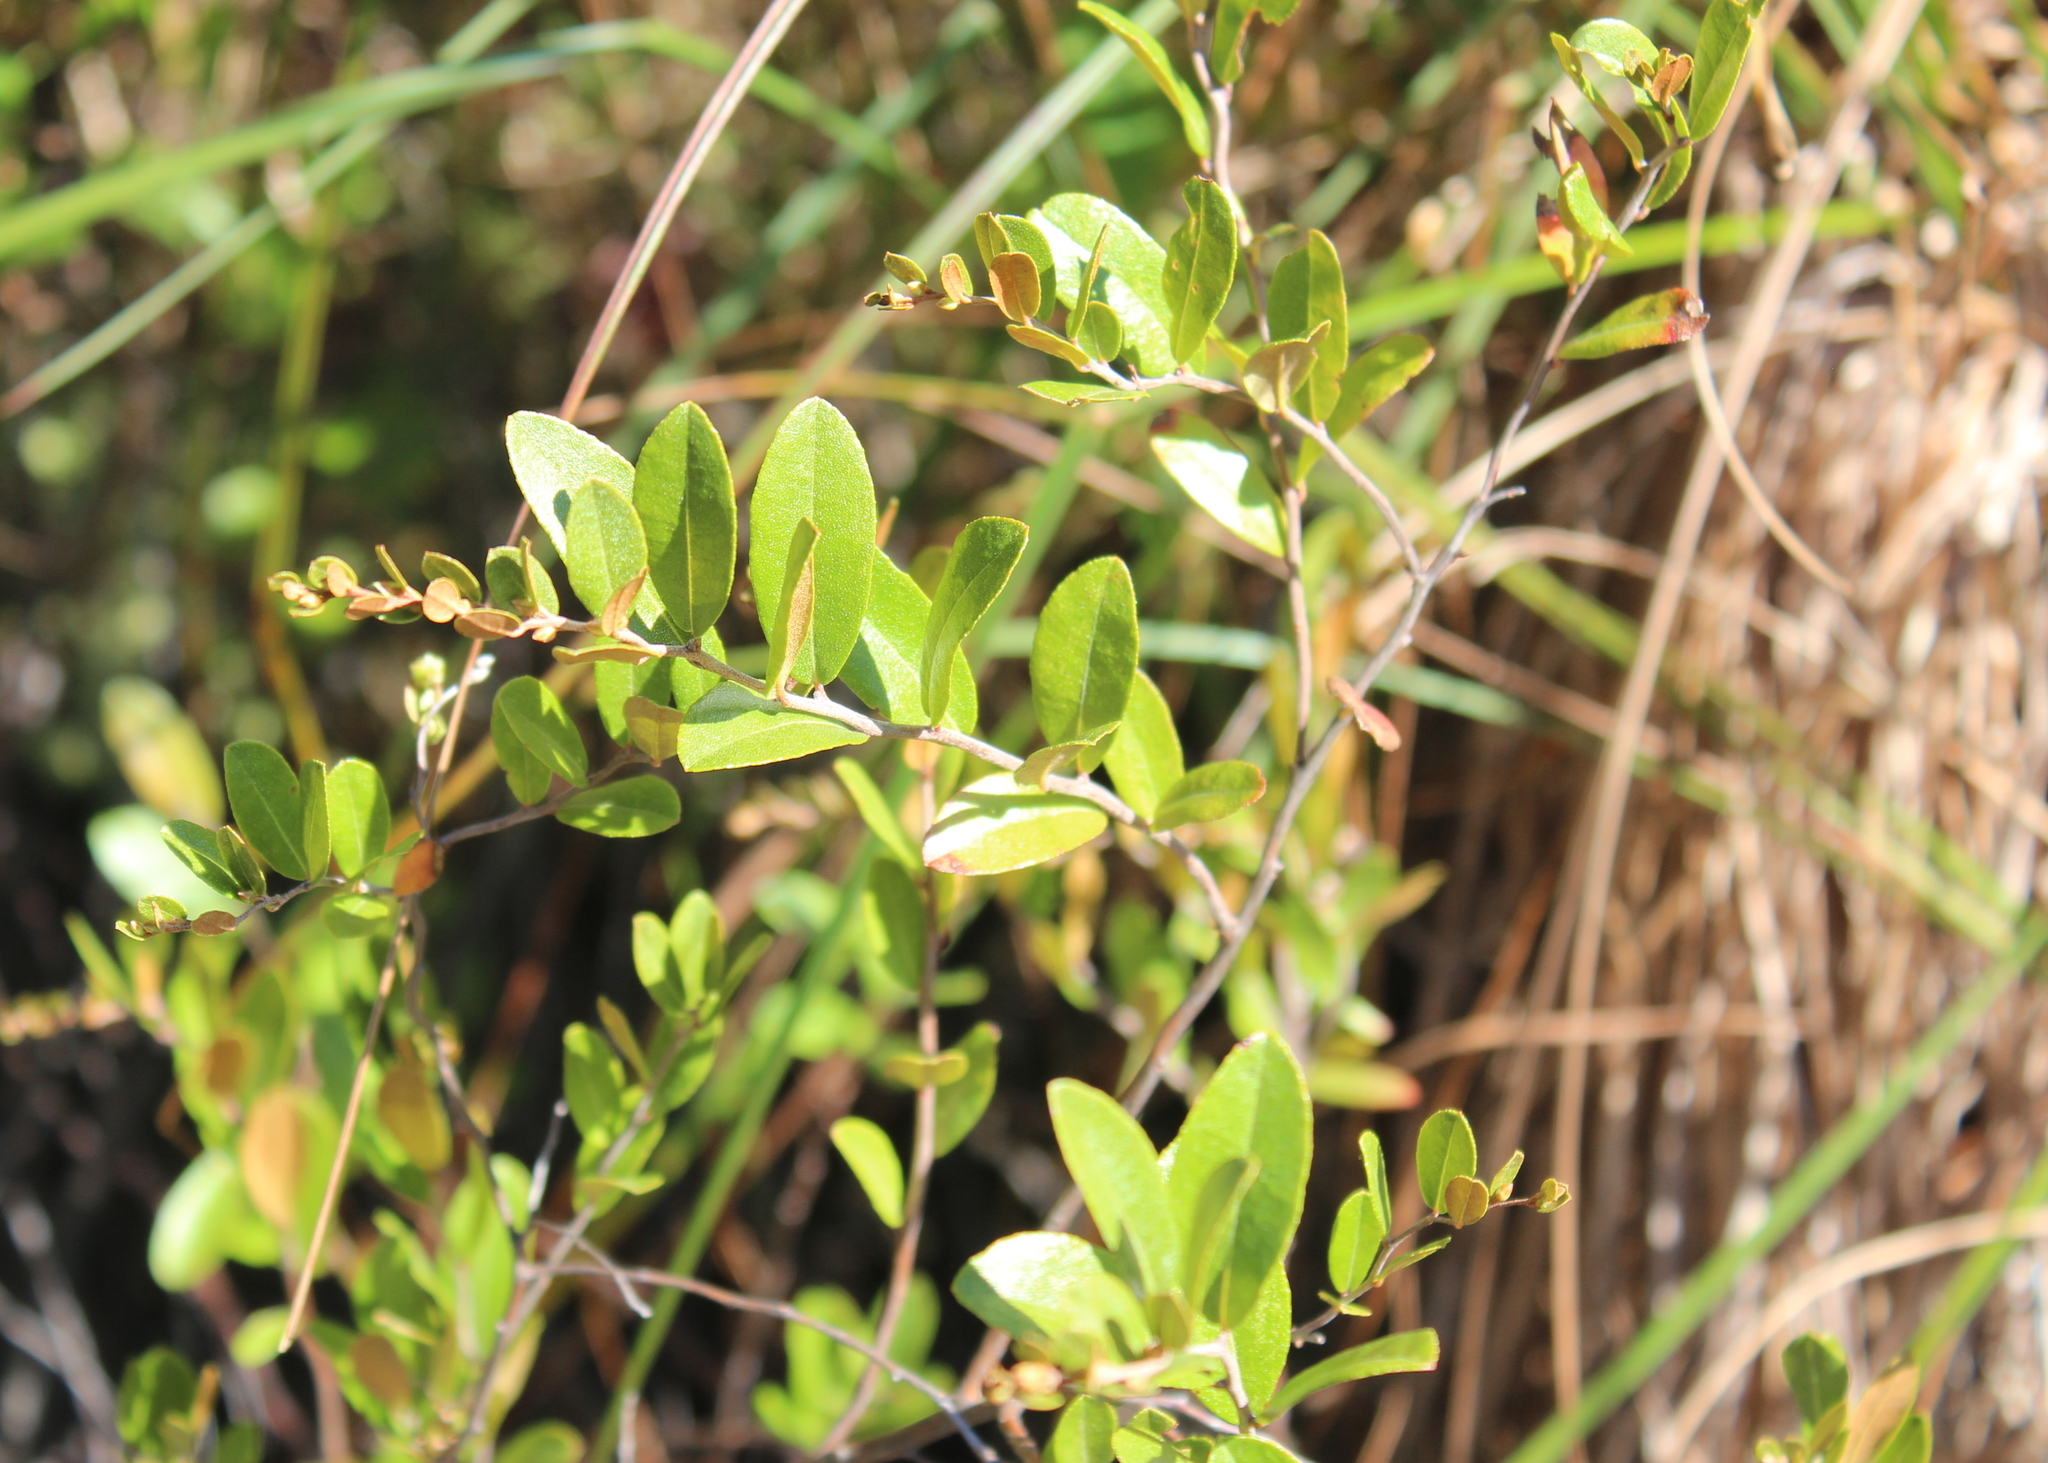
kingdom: Plantae
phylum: Tracheophyta
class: Magnoliopsida
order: Ericales
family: Ericaceae
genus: Chamaedaphne
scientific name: Chamaedaphne calyculata
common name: Leatherleaf
